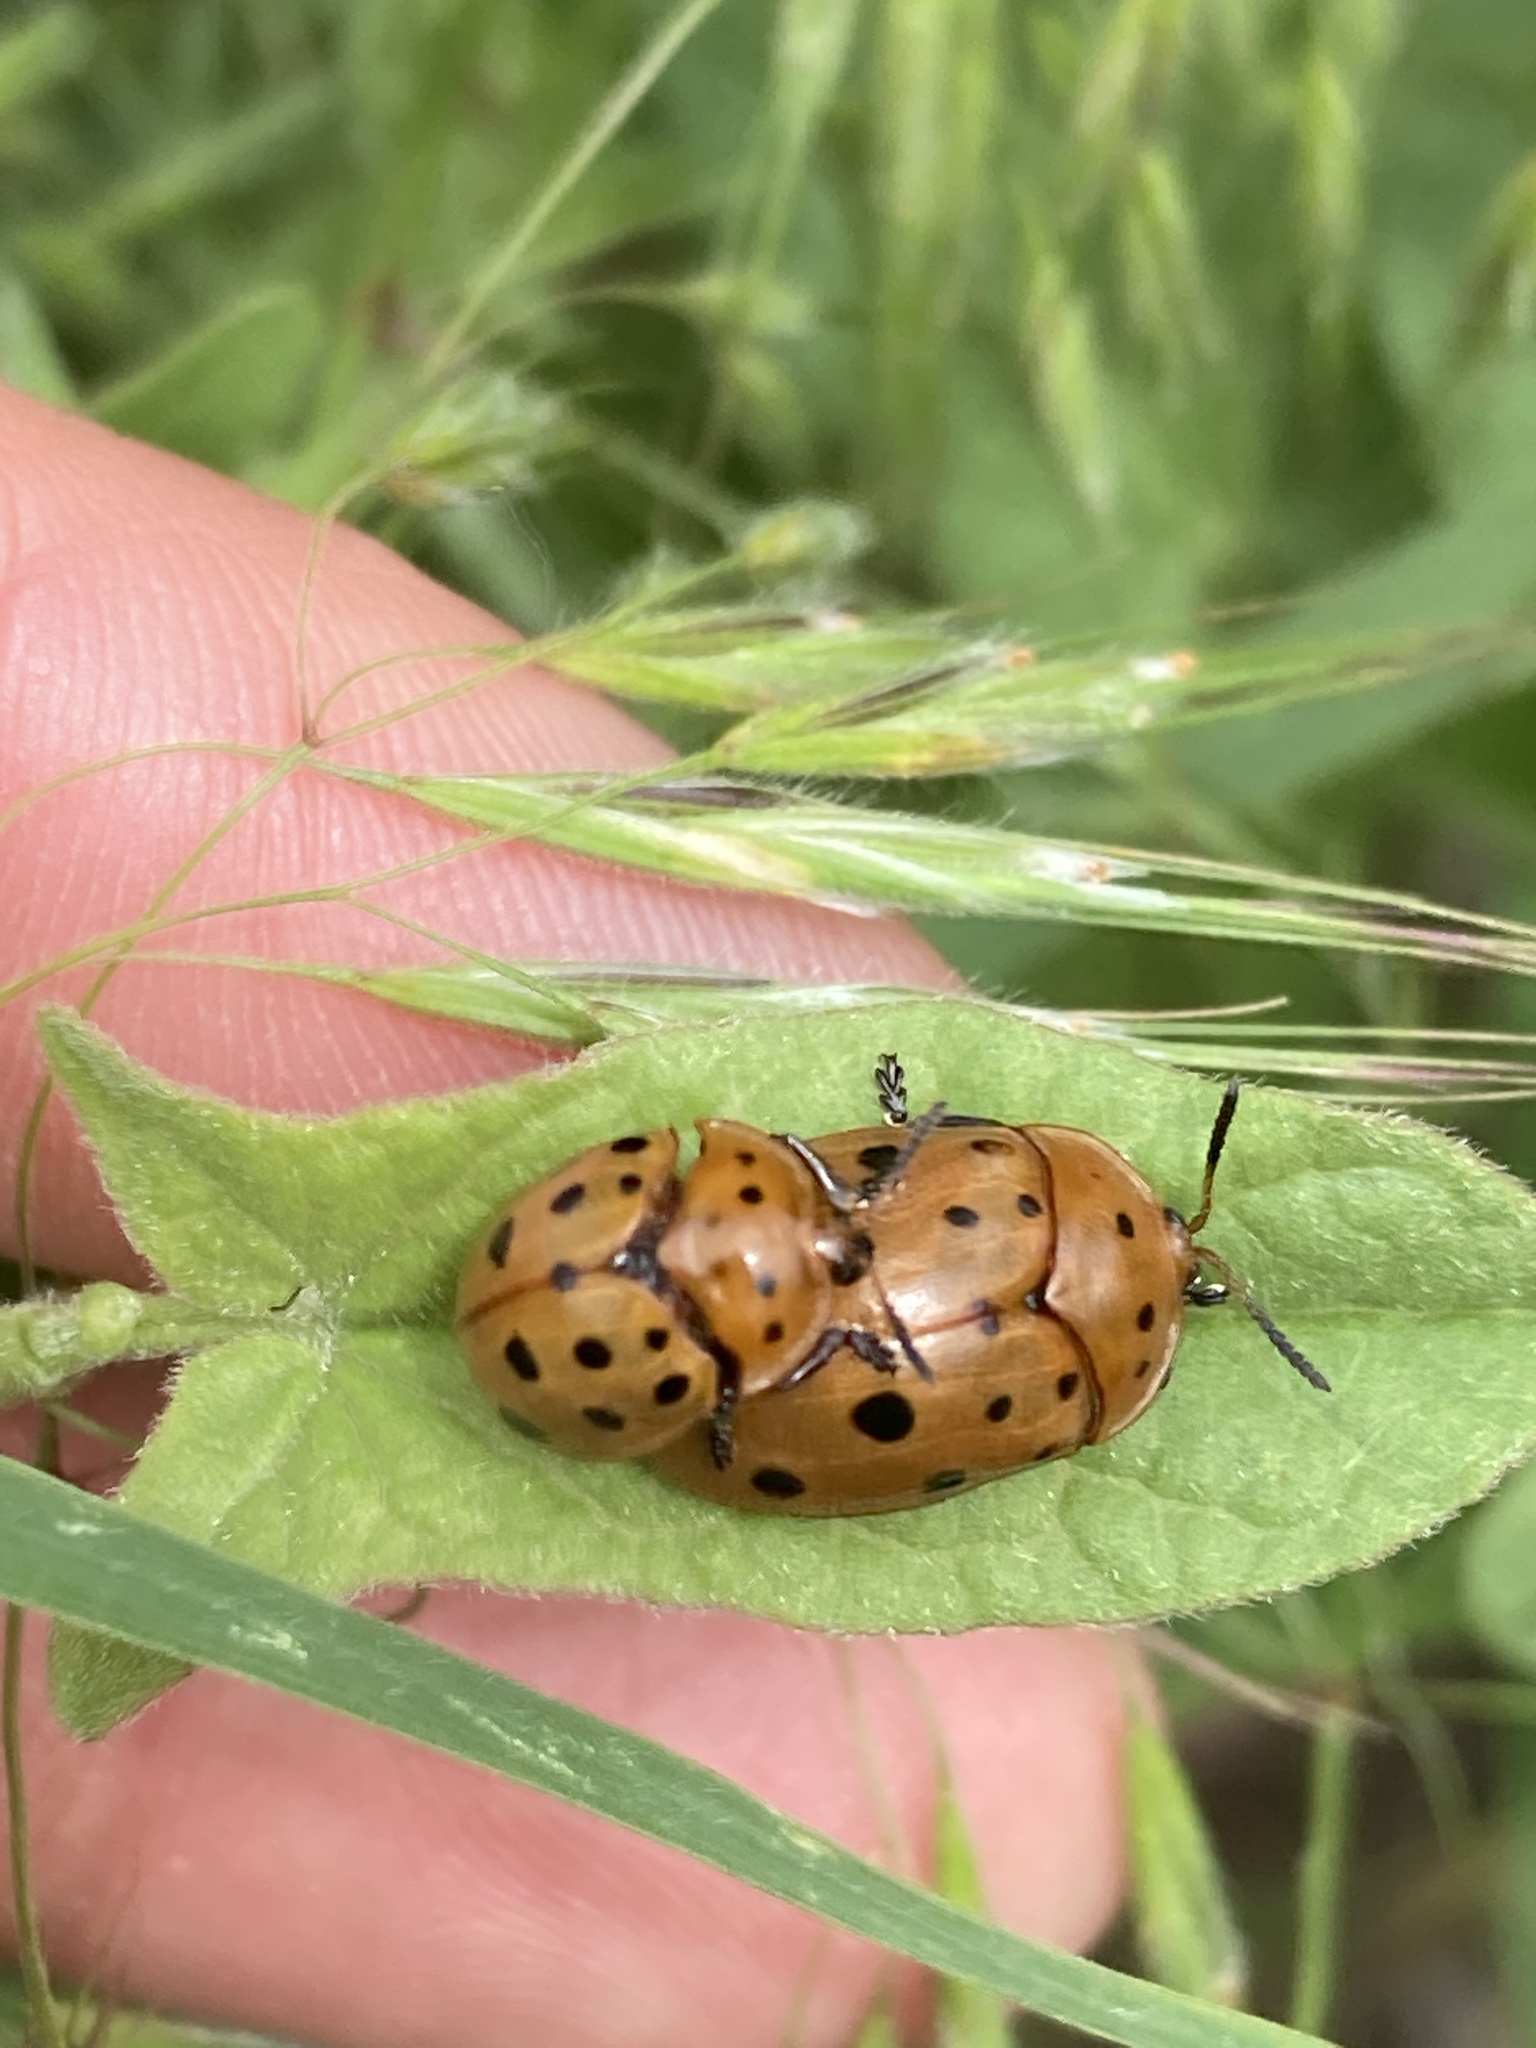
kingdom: Animalia
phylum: Arthropoda
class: Insecta
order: Coleoptera
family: Chrysomelidae
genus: Chelymorpha
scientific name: Chelymorpha cassidea
